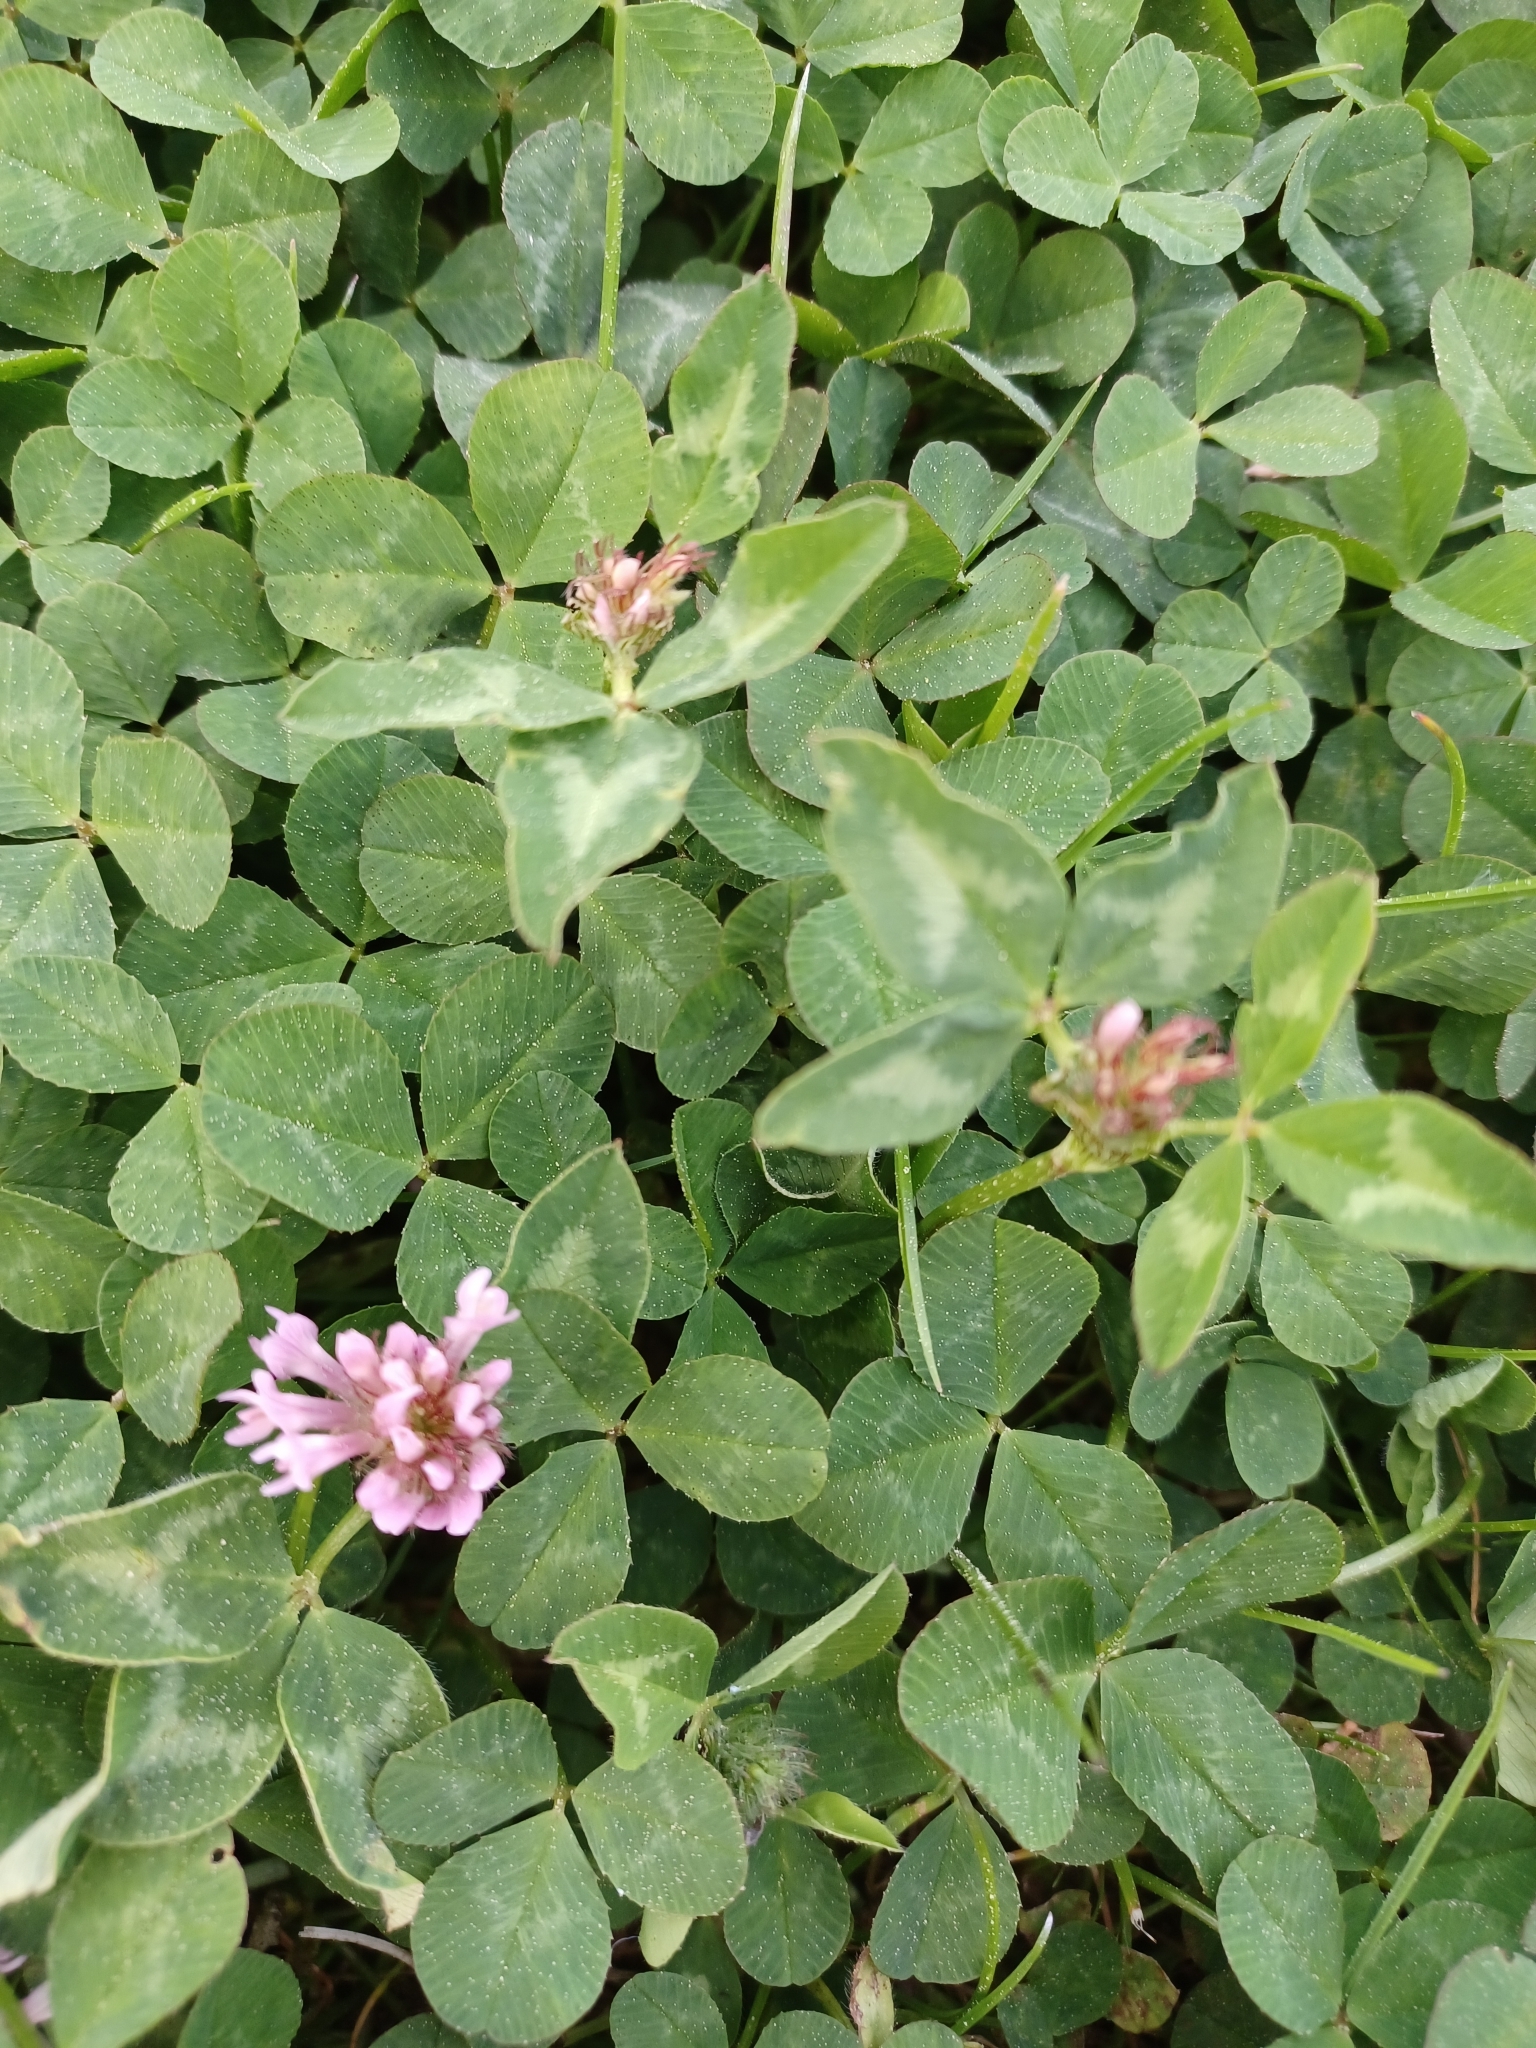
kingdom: Plantae
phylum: Tracheophyta
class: Magnoliopsida
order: Fabales
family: Fabaceae
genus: Trifolium
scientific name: Trifolium pratense
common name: Red clover
